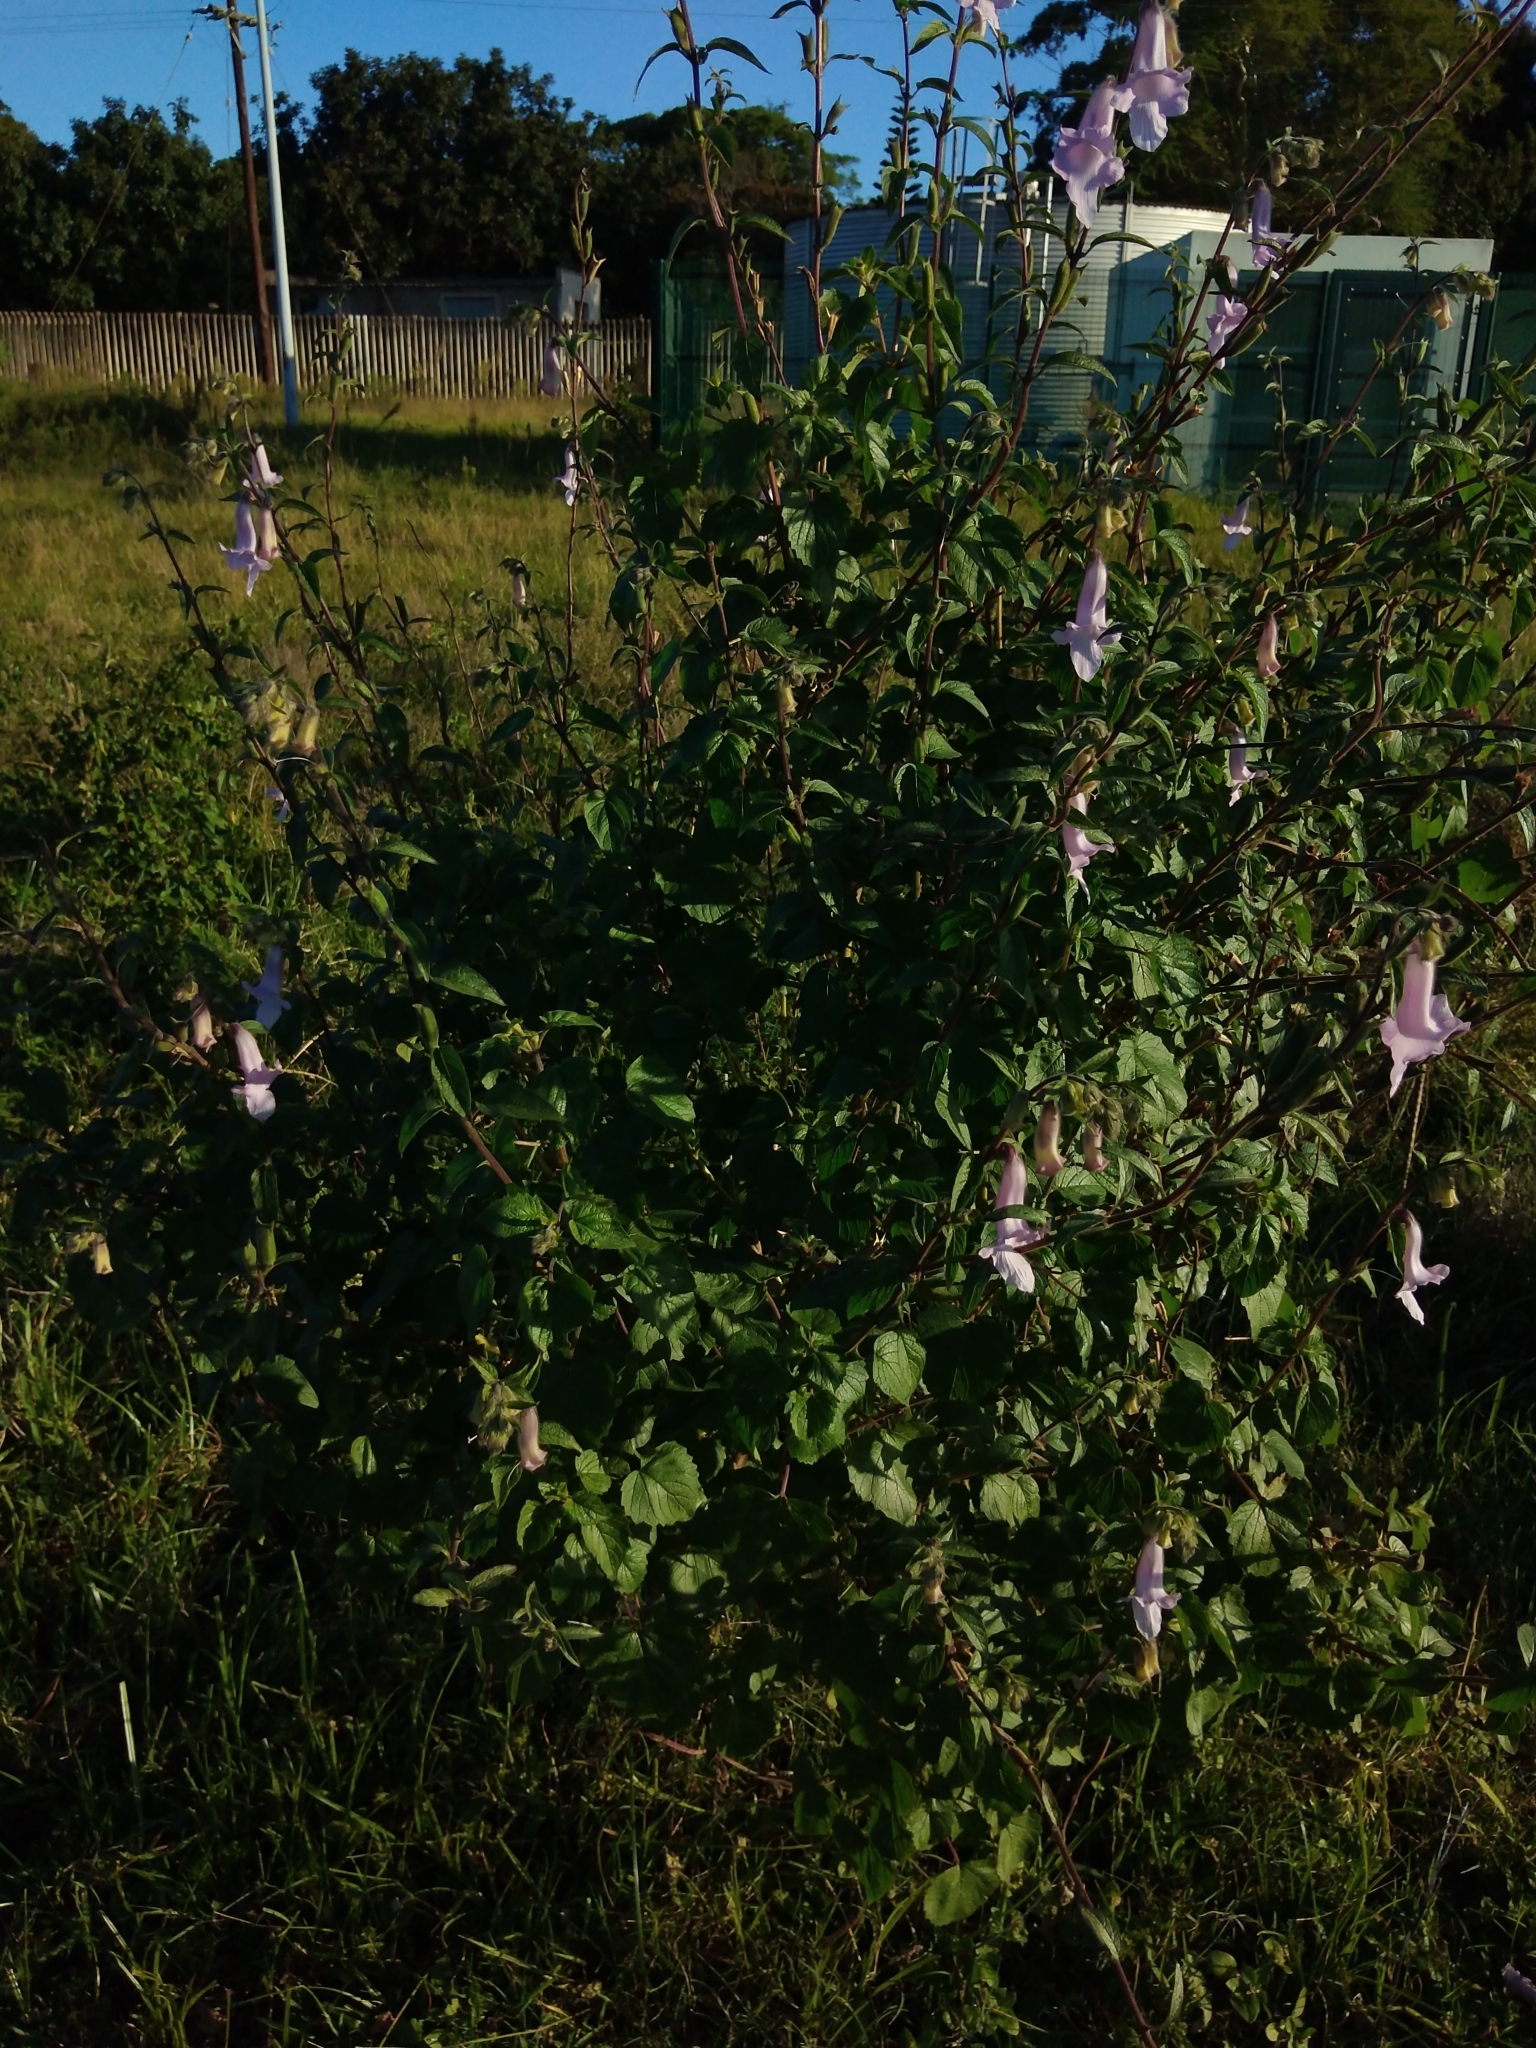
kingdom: Plantae
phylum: Tracheophyta
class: Magnoliopsida
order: Lamiales
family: Pedaliaceae
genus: Sesamum
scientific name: Sesamum trilobum
